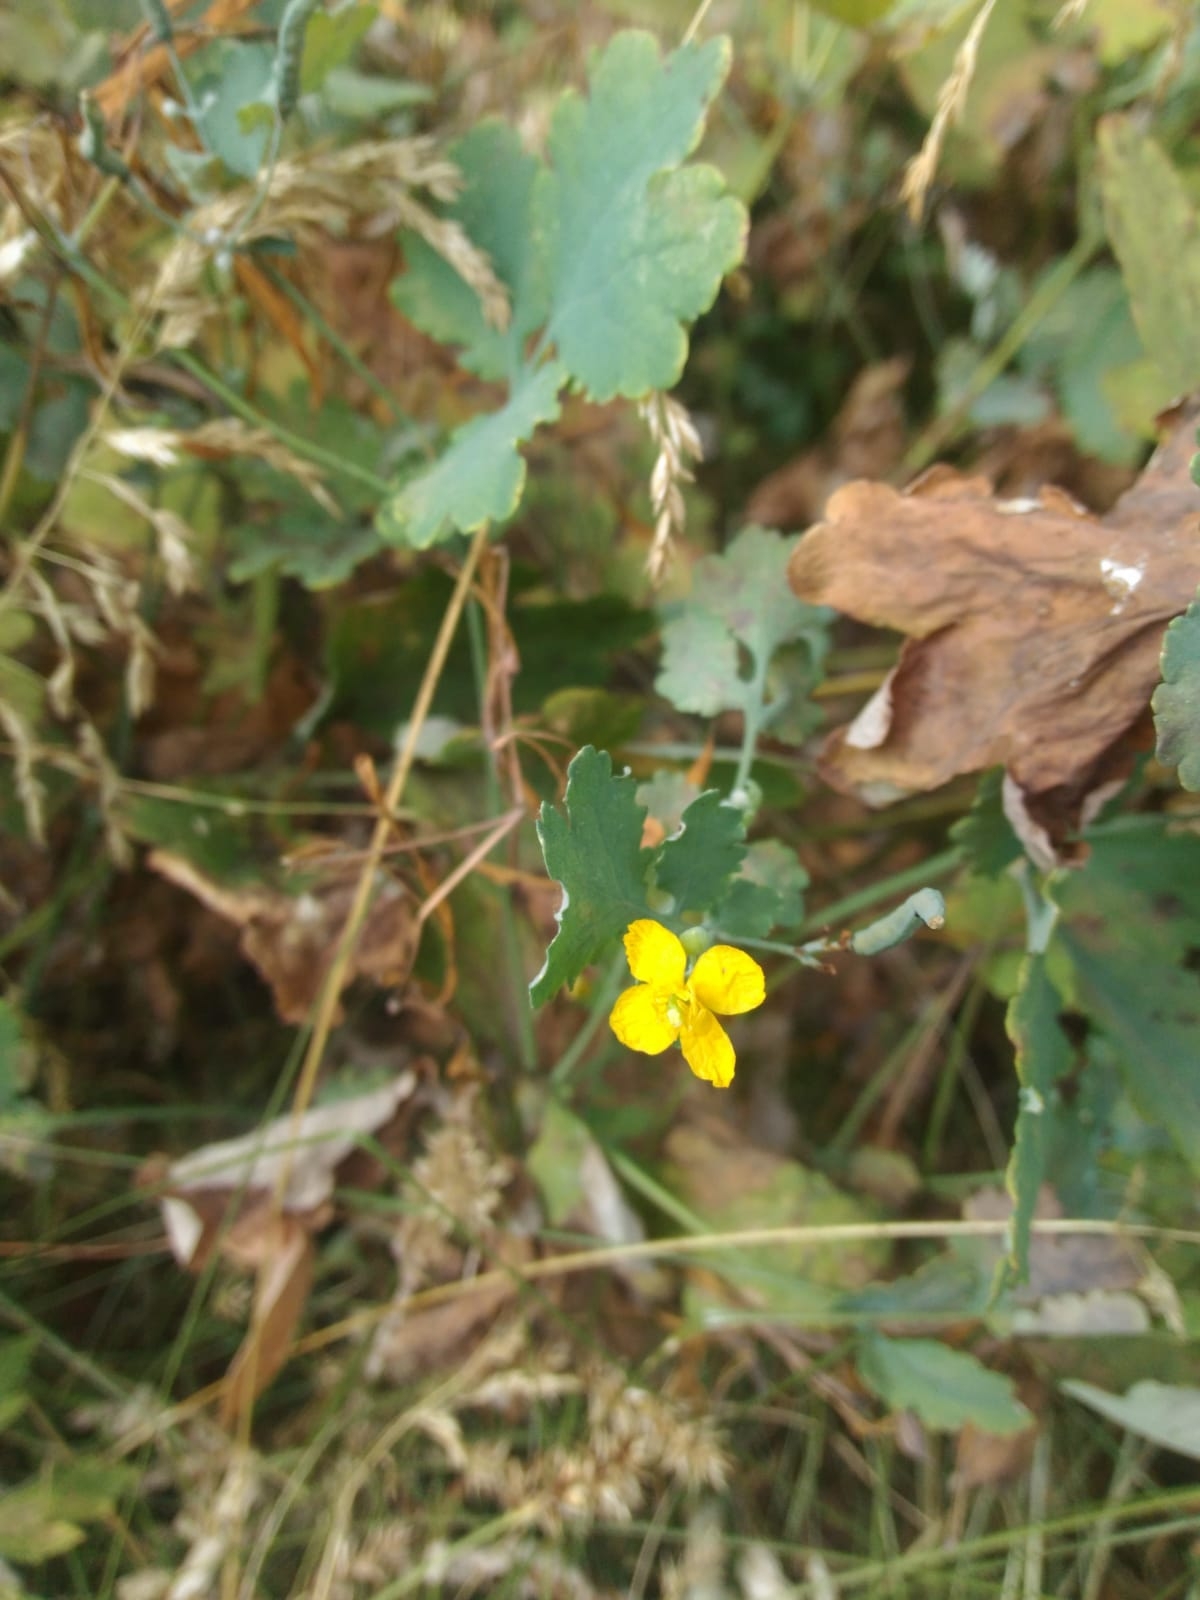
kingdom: Plantae
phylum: Tracheophyta
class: Magnoliopsida
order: Ranunculales
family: Papaveraceae
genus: Chelidonium
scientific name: Chelidonium majus
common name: Greater celandine
